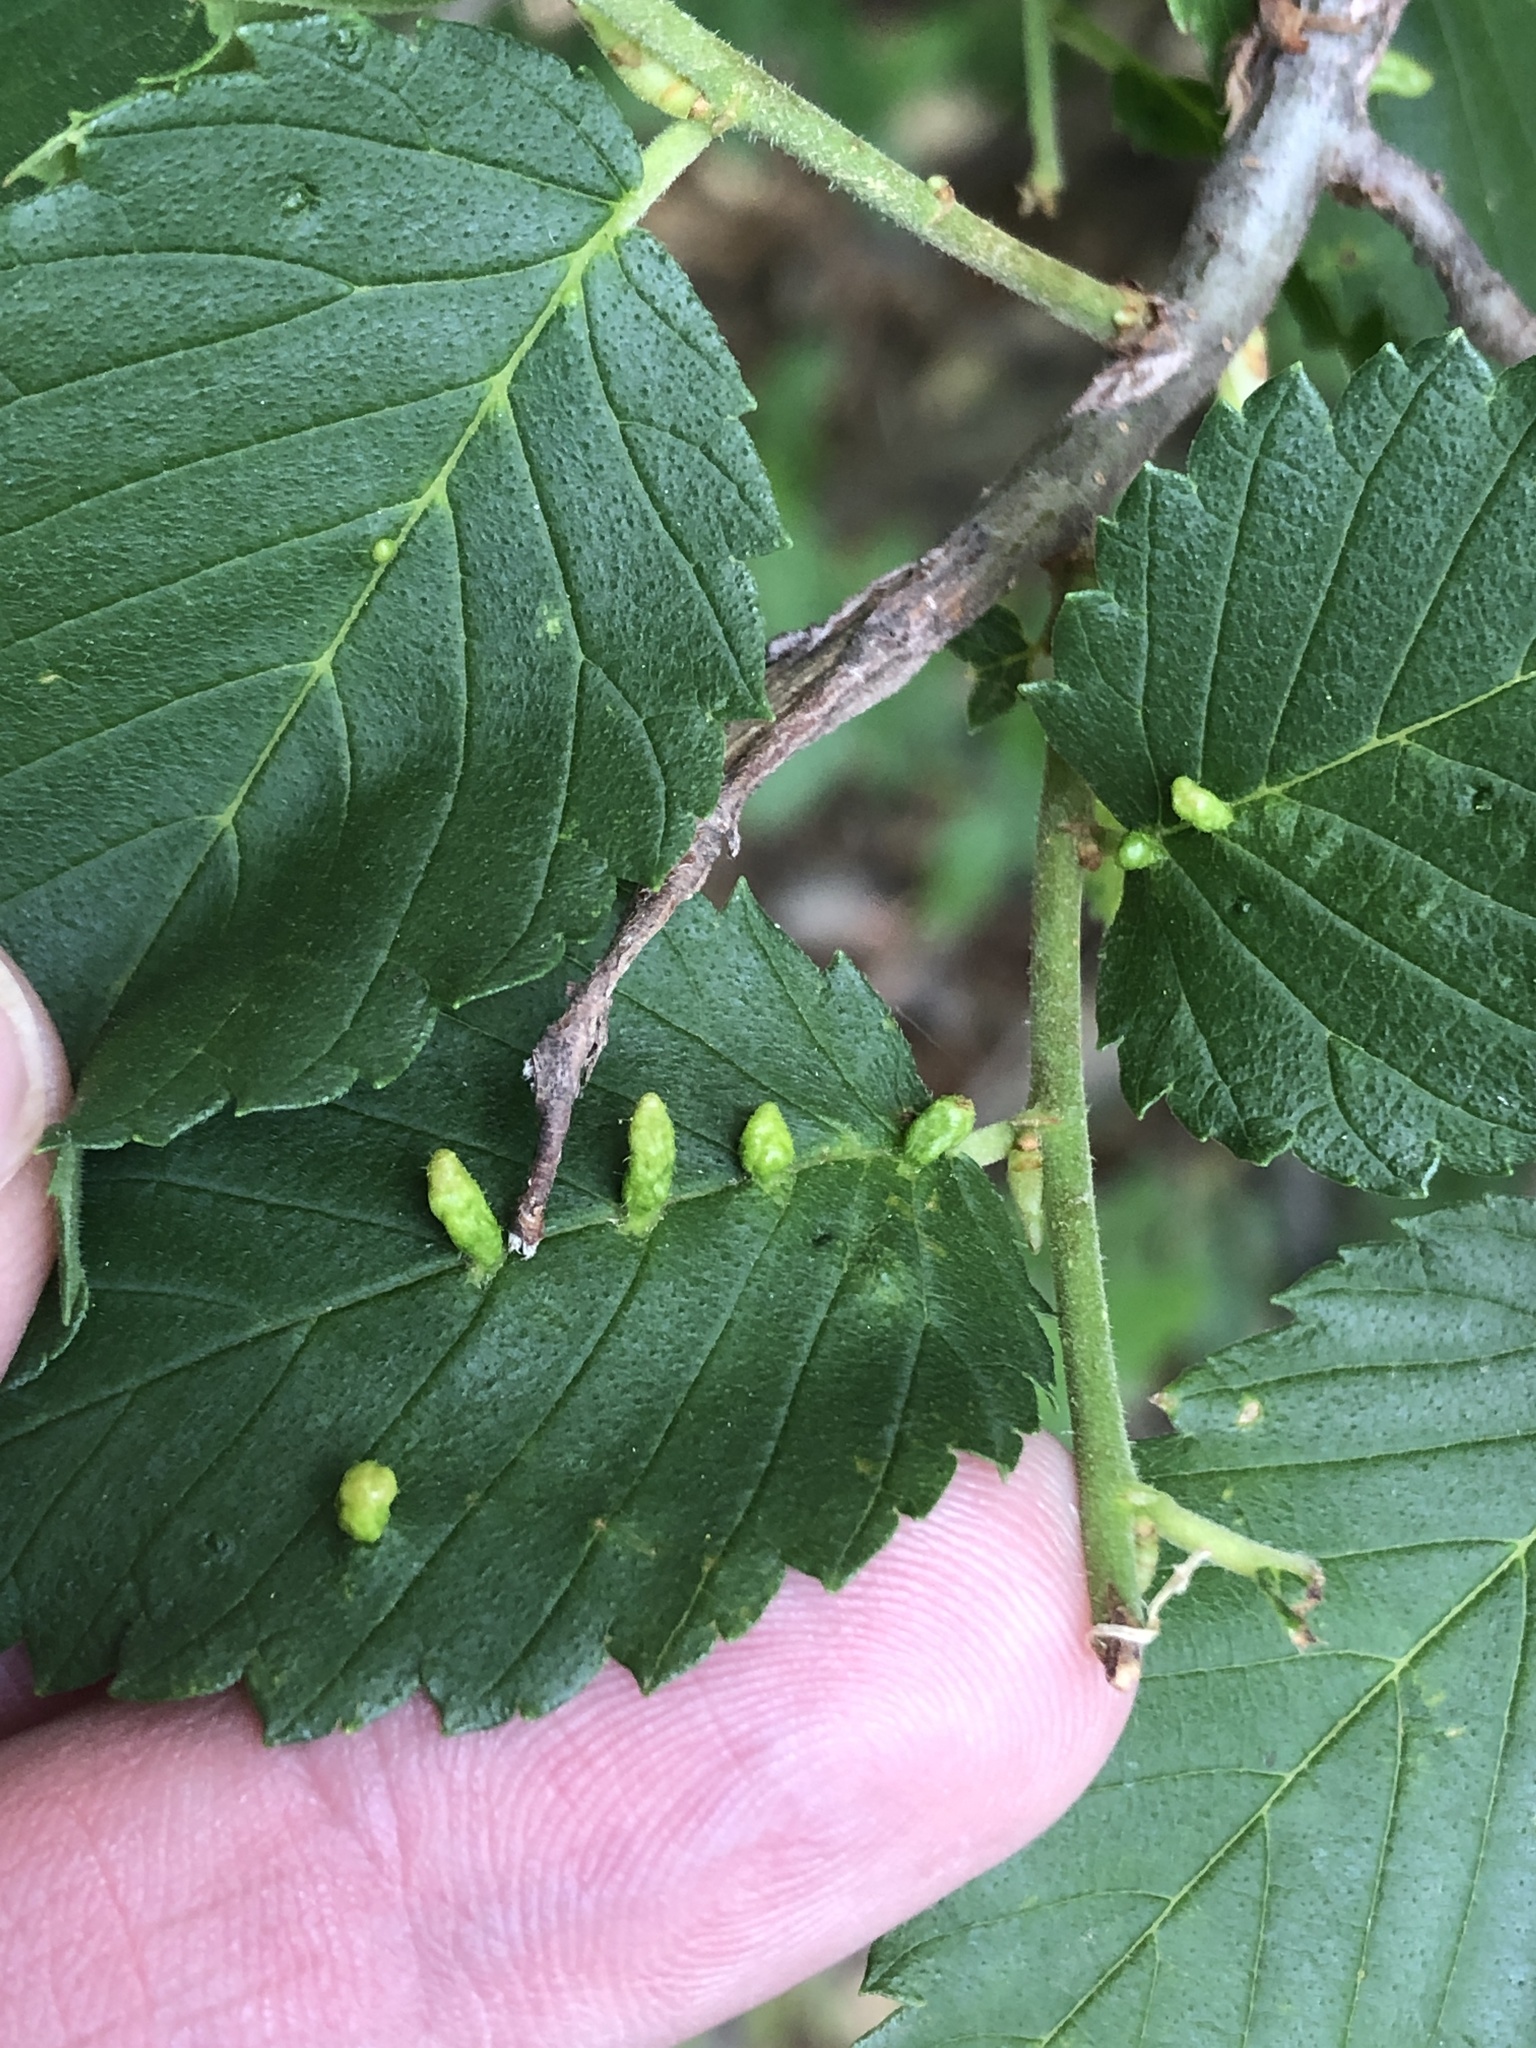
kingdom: Animalia
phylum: Arthropoda
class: Arachnida
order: Trombidiformes
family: Eriophyidae
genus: Aceria
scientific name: Aceria
